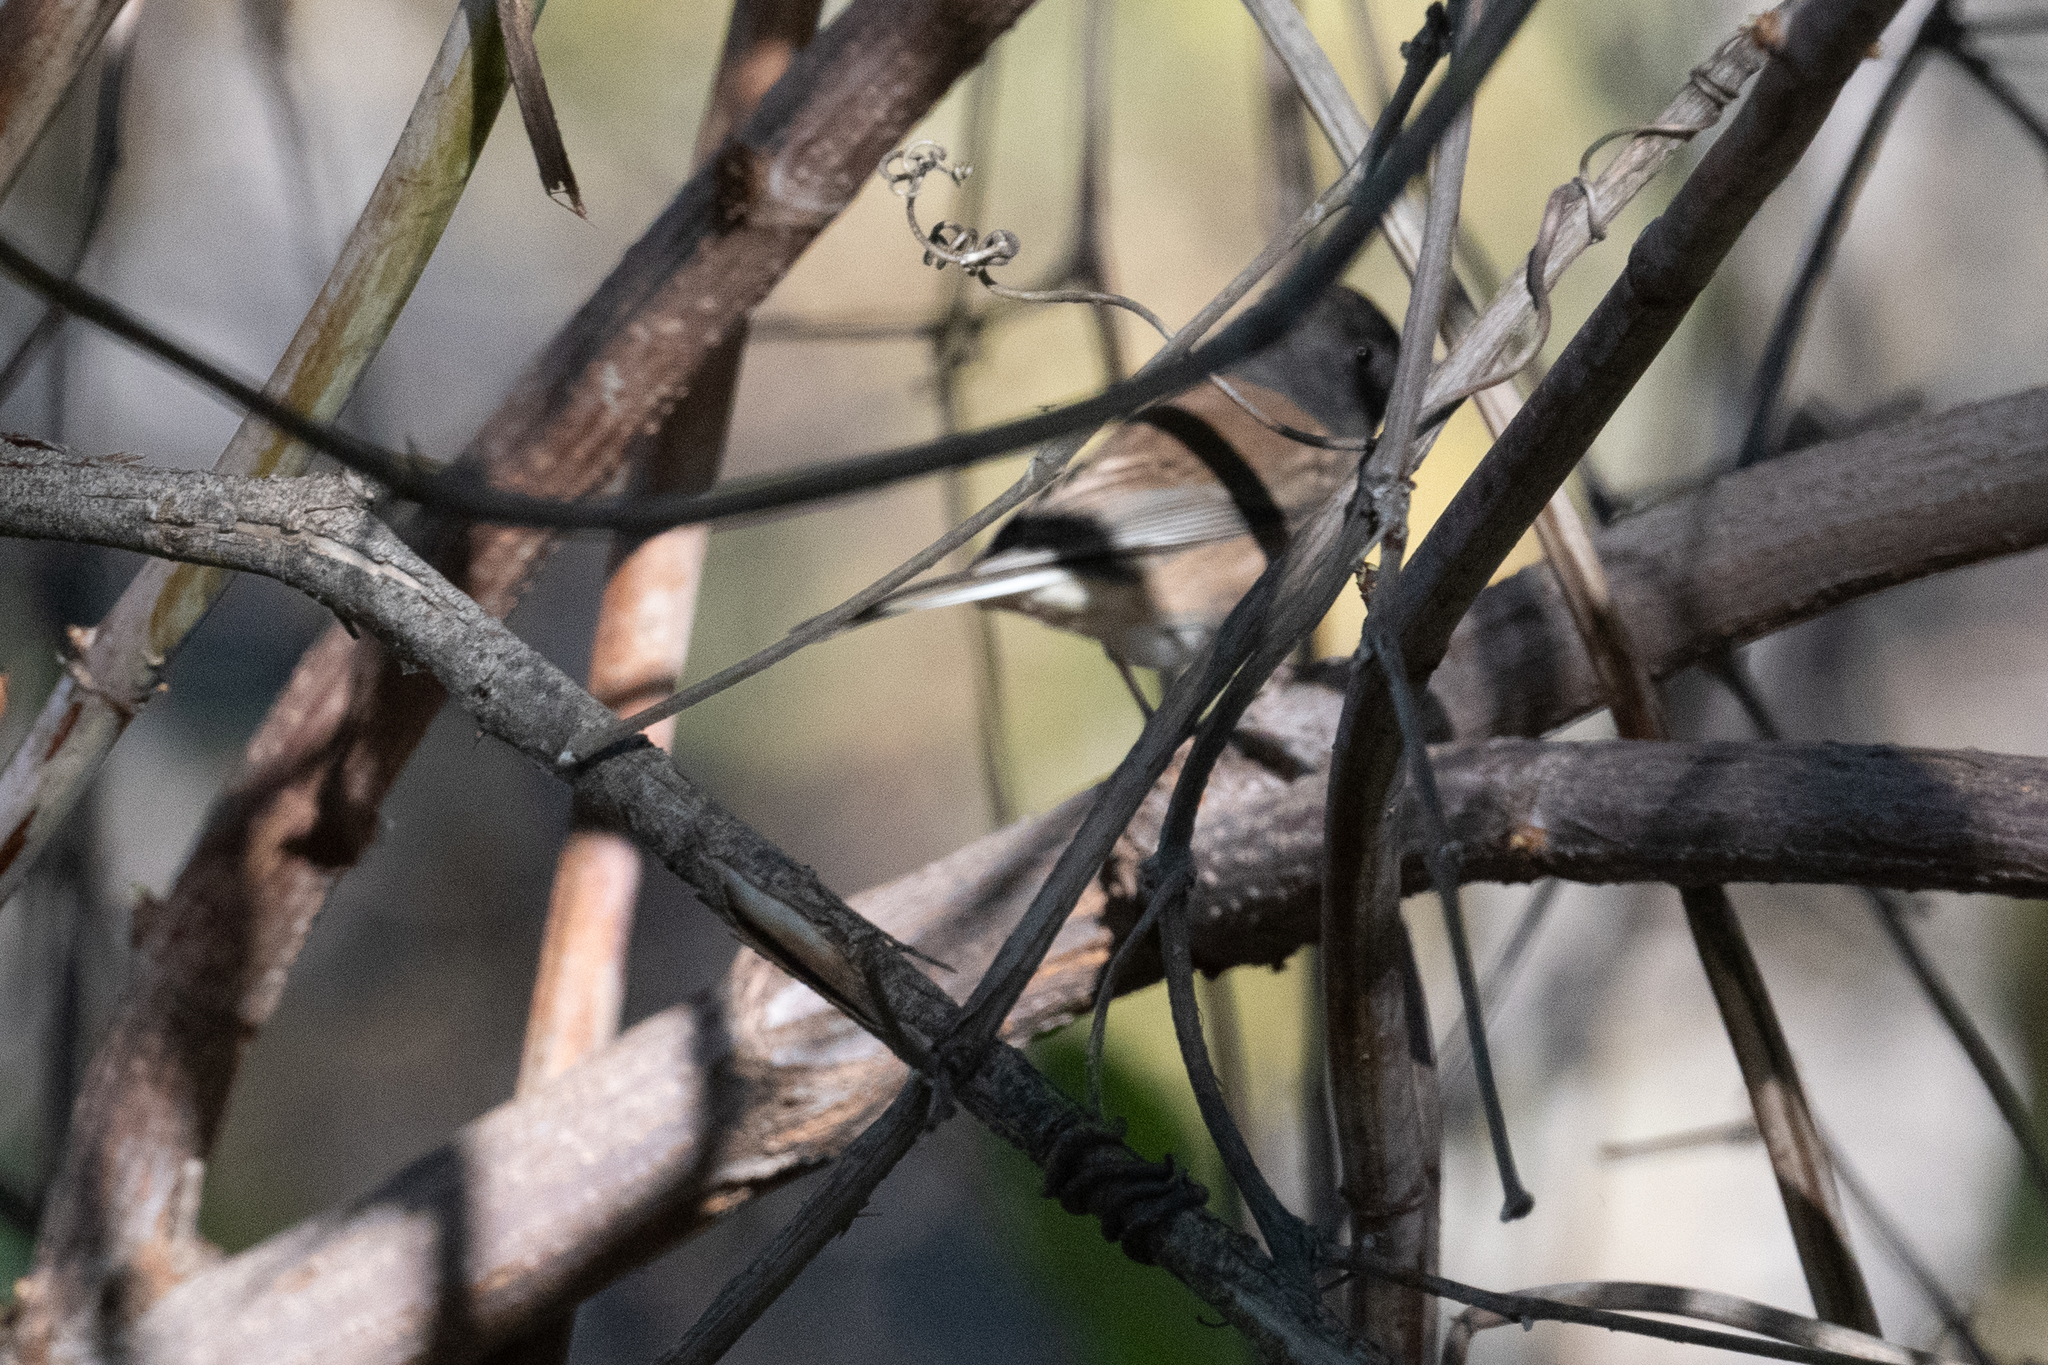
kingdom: Animalia
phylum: Chordata
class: Aves
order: Passeriformes
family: Passerellidae
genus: Junco
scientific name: Junco hyemalis
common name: Dark-eyed junco
